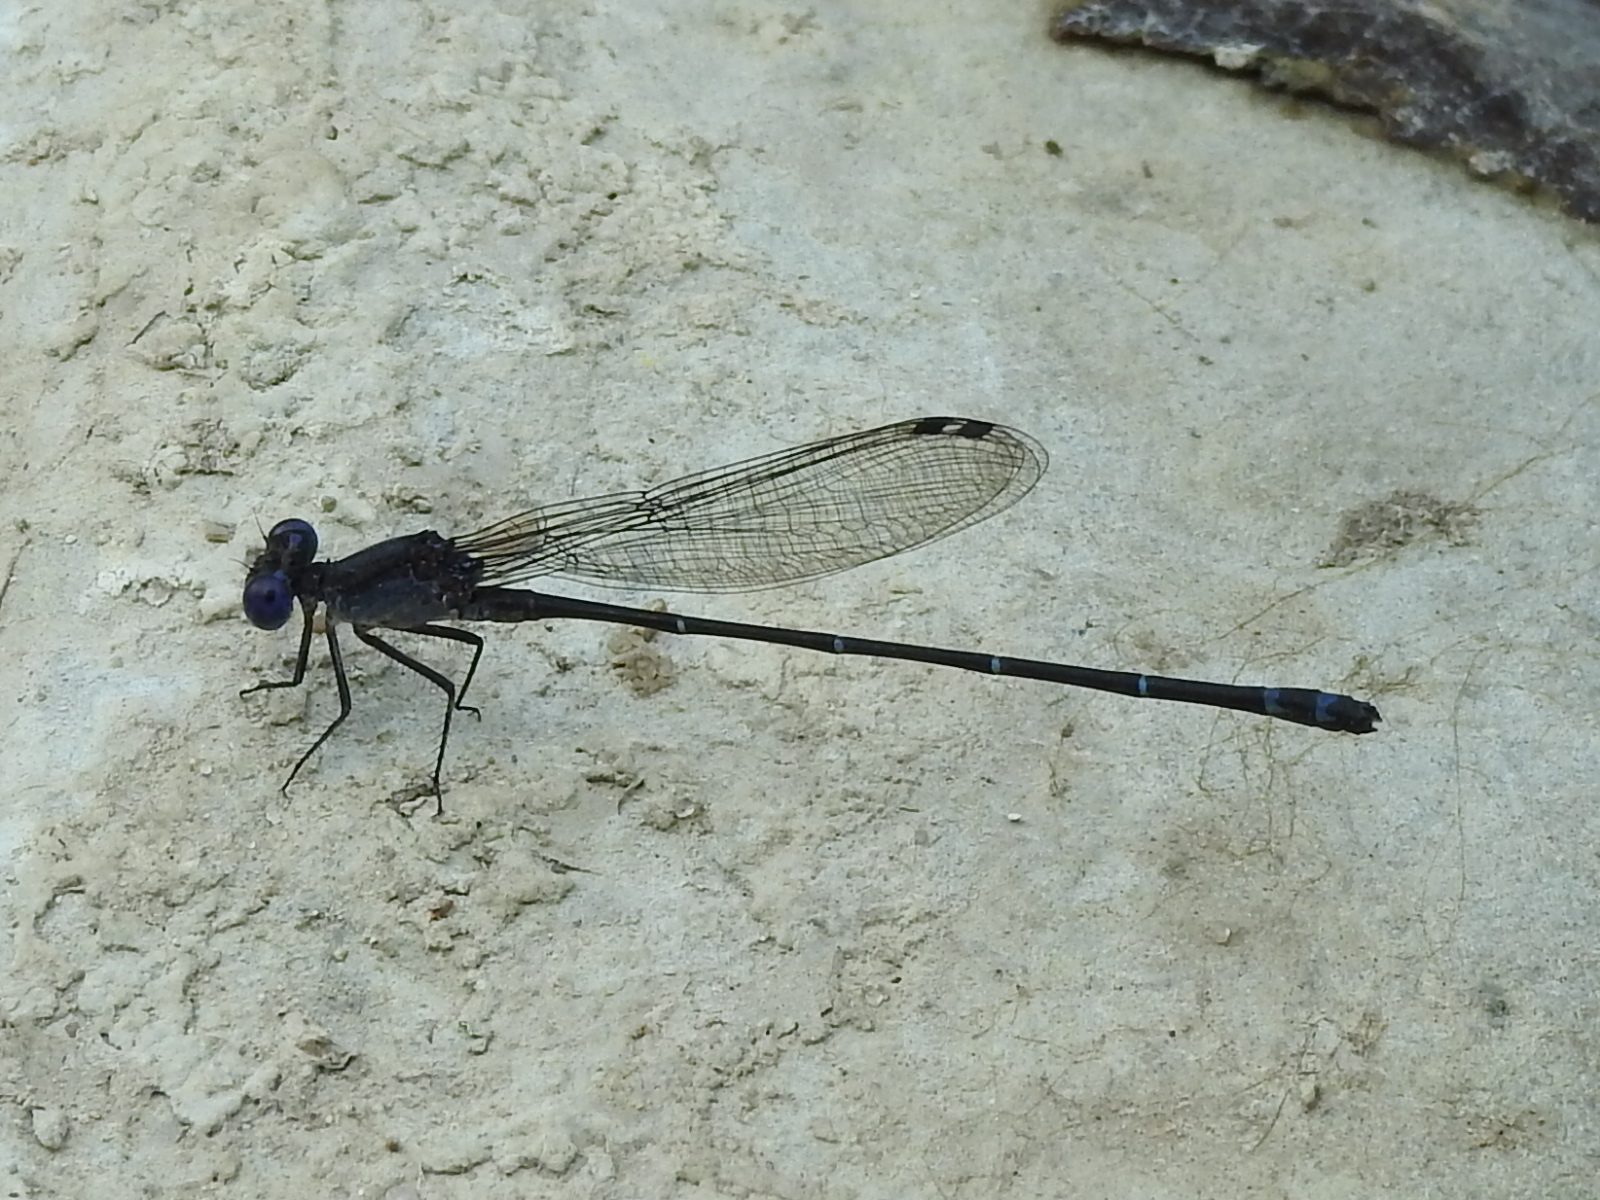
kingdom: Animalia
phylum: Arthropoda
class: Insecta
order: Odonata
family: Coenagrionidae
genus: Argia
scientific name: Argia translata
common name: Dusky dancer
